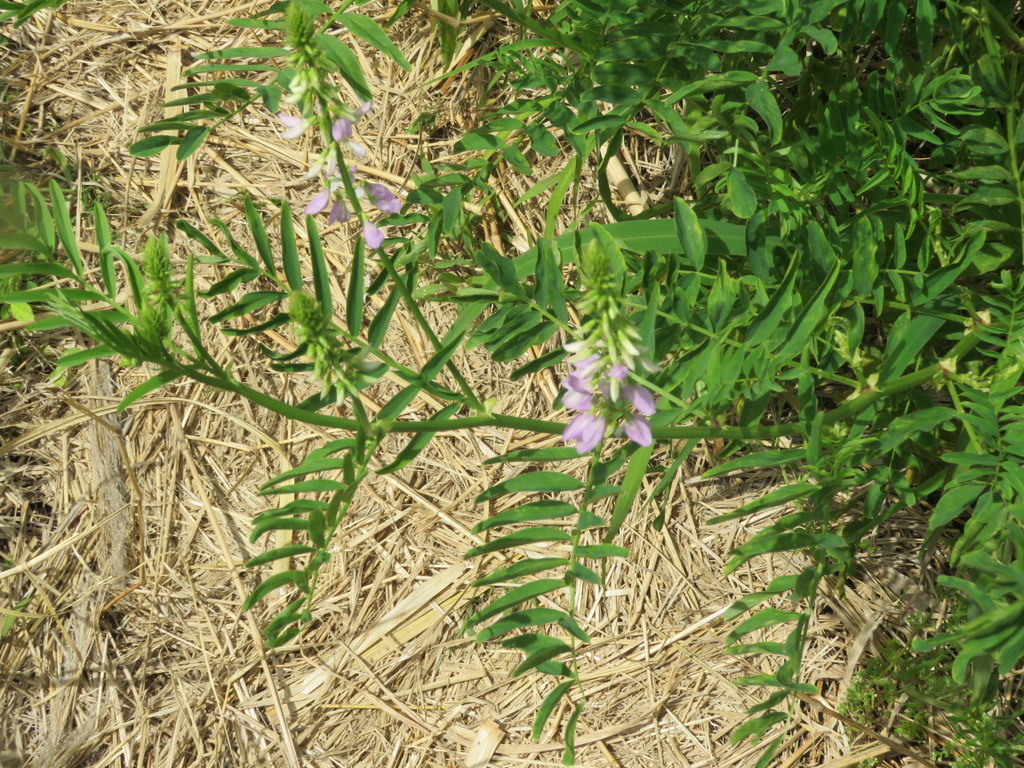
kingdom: Plantae
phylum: Tracheophyta
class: Magnoliopsida
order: Fabales
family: Fabaceae
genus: Galega
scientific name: Galega officinalis
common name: Goat's-rue
